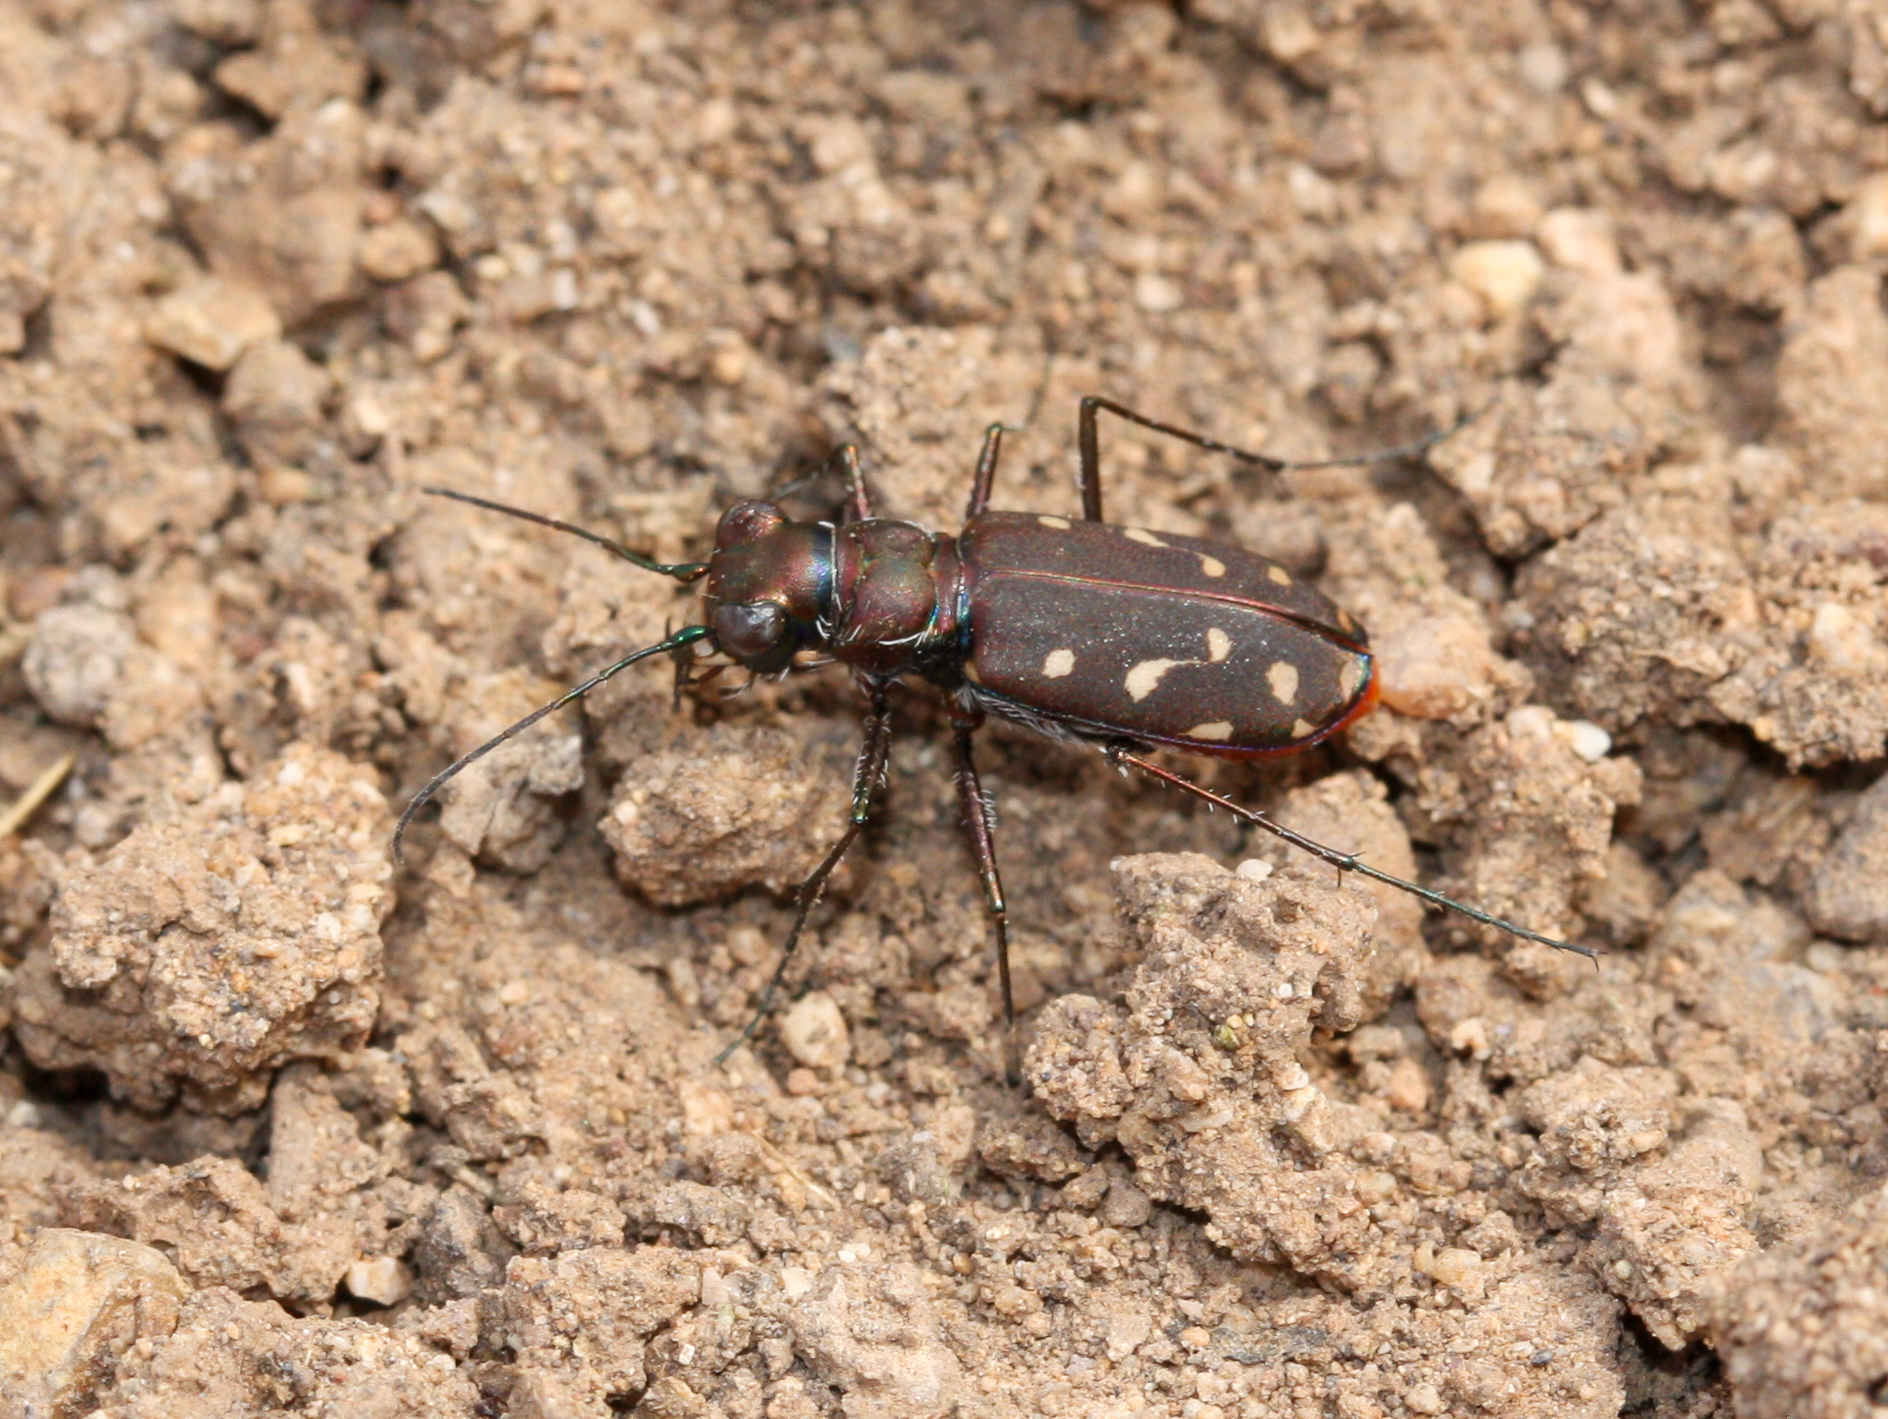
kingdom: Animalia
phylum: Arthropoda
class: Insecta
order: Coleoptera
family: Carabidae
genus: Cicindela
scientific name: Cicindela sedecimpunctata
